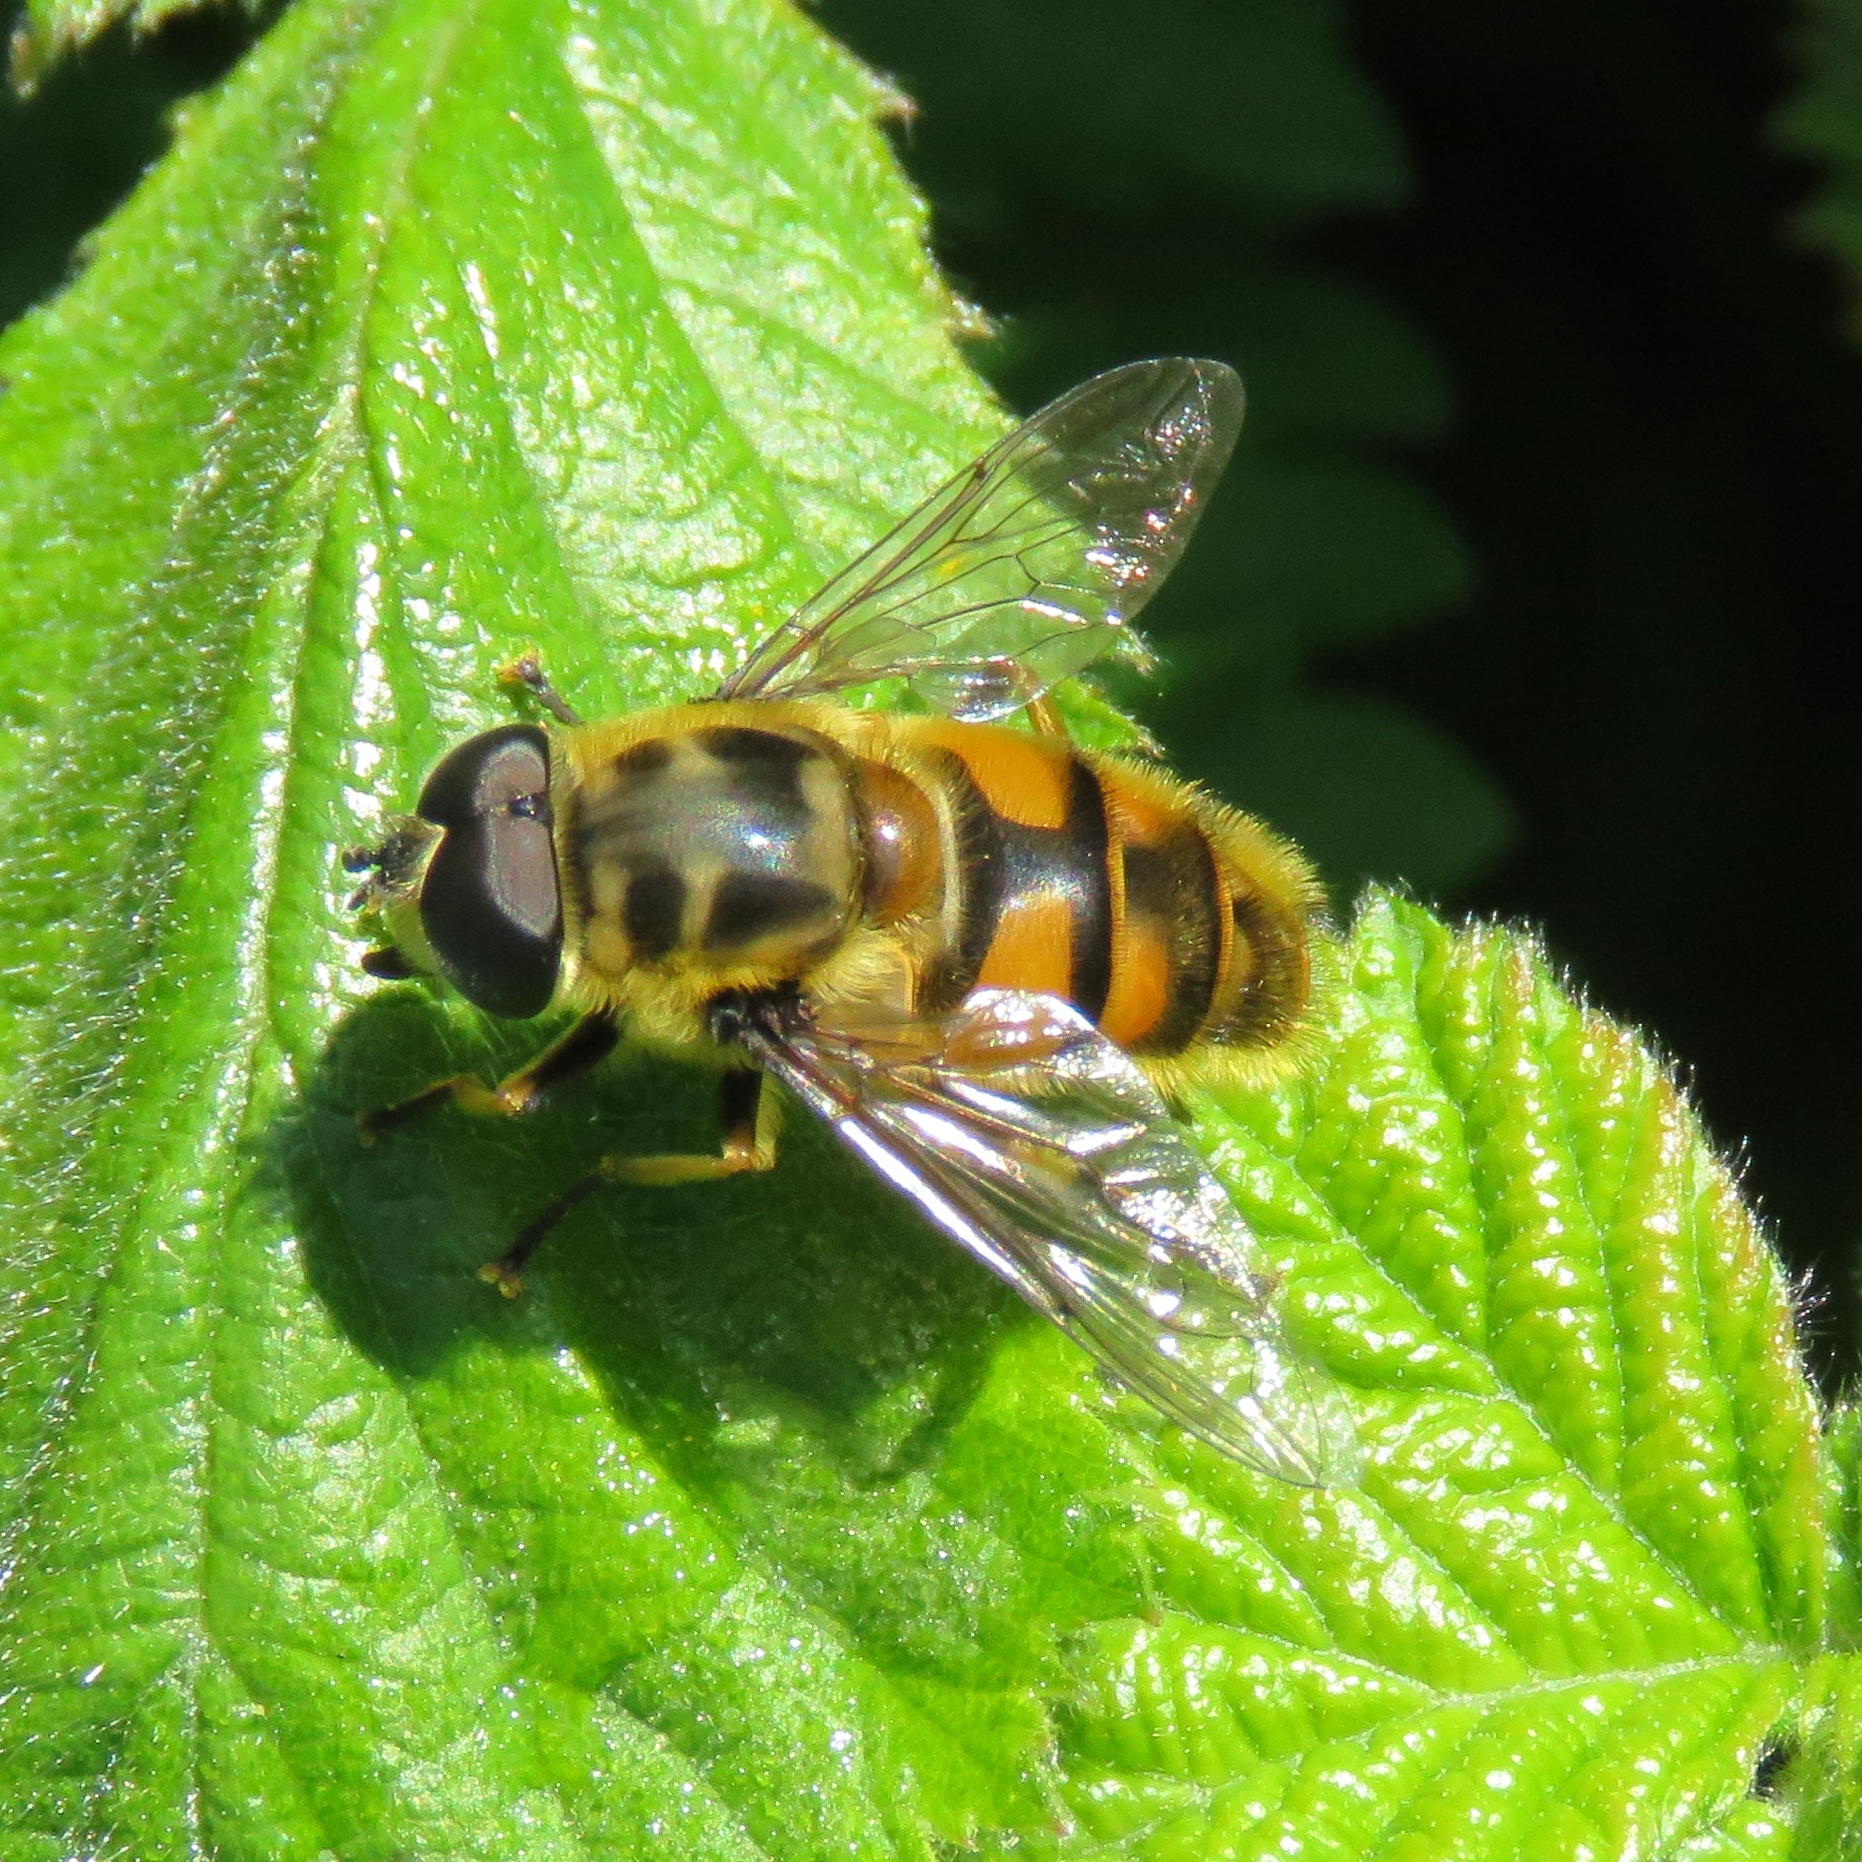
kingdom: Animalia
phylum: Arthropoda
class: Insecta
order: Diptera
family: Syrphidae
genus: Myathropa
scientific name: Myathropa florea
